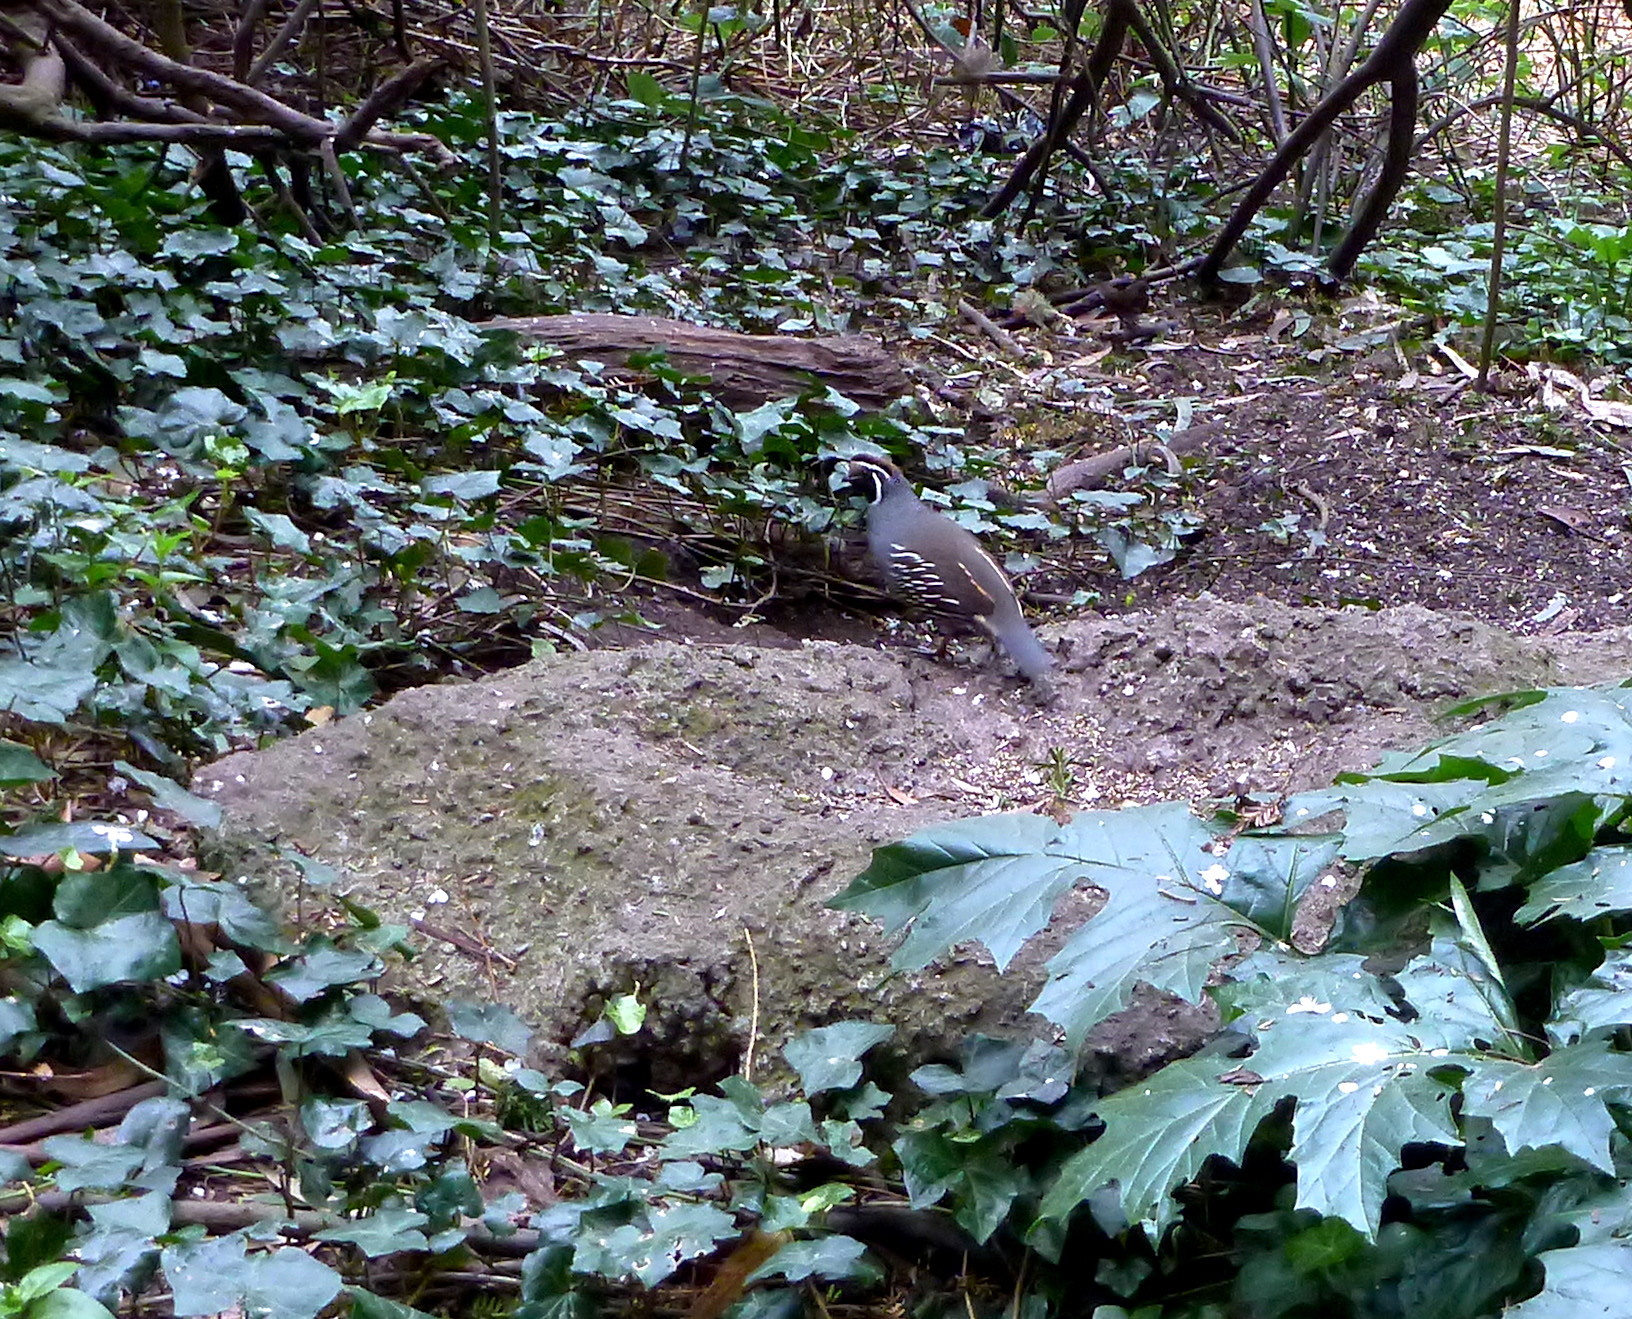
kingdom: Animalia
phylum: Chordata
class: Aves
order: Galliformes
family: Odontophoridae
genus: Callipepla
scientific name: Callipepla californica
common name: California quail
